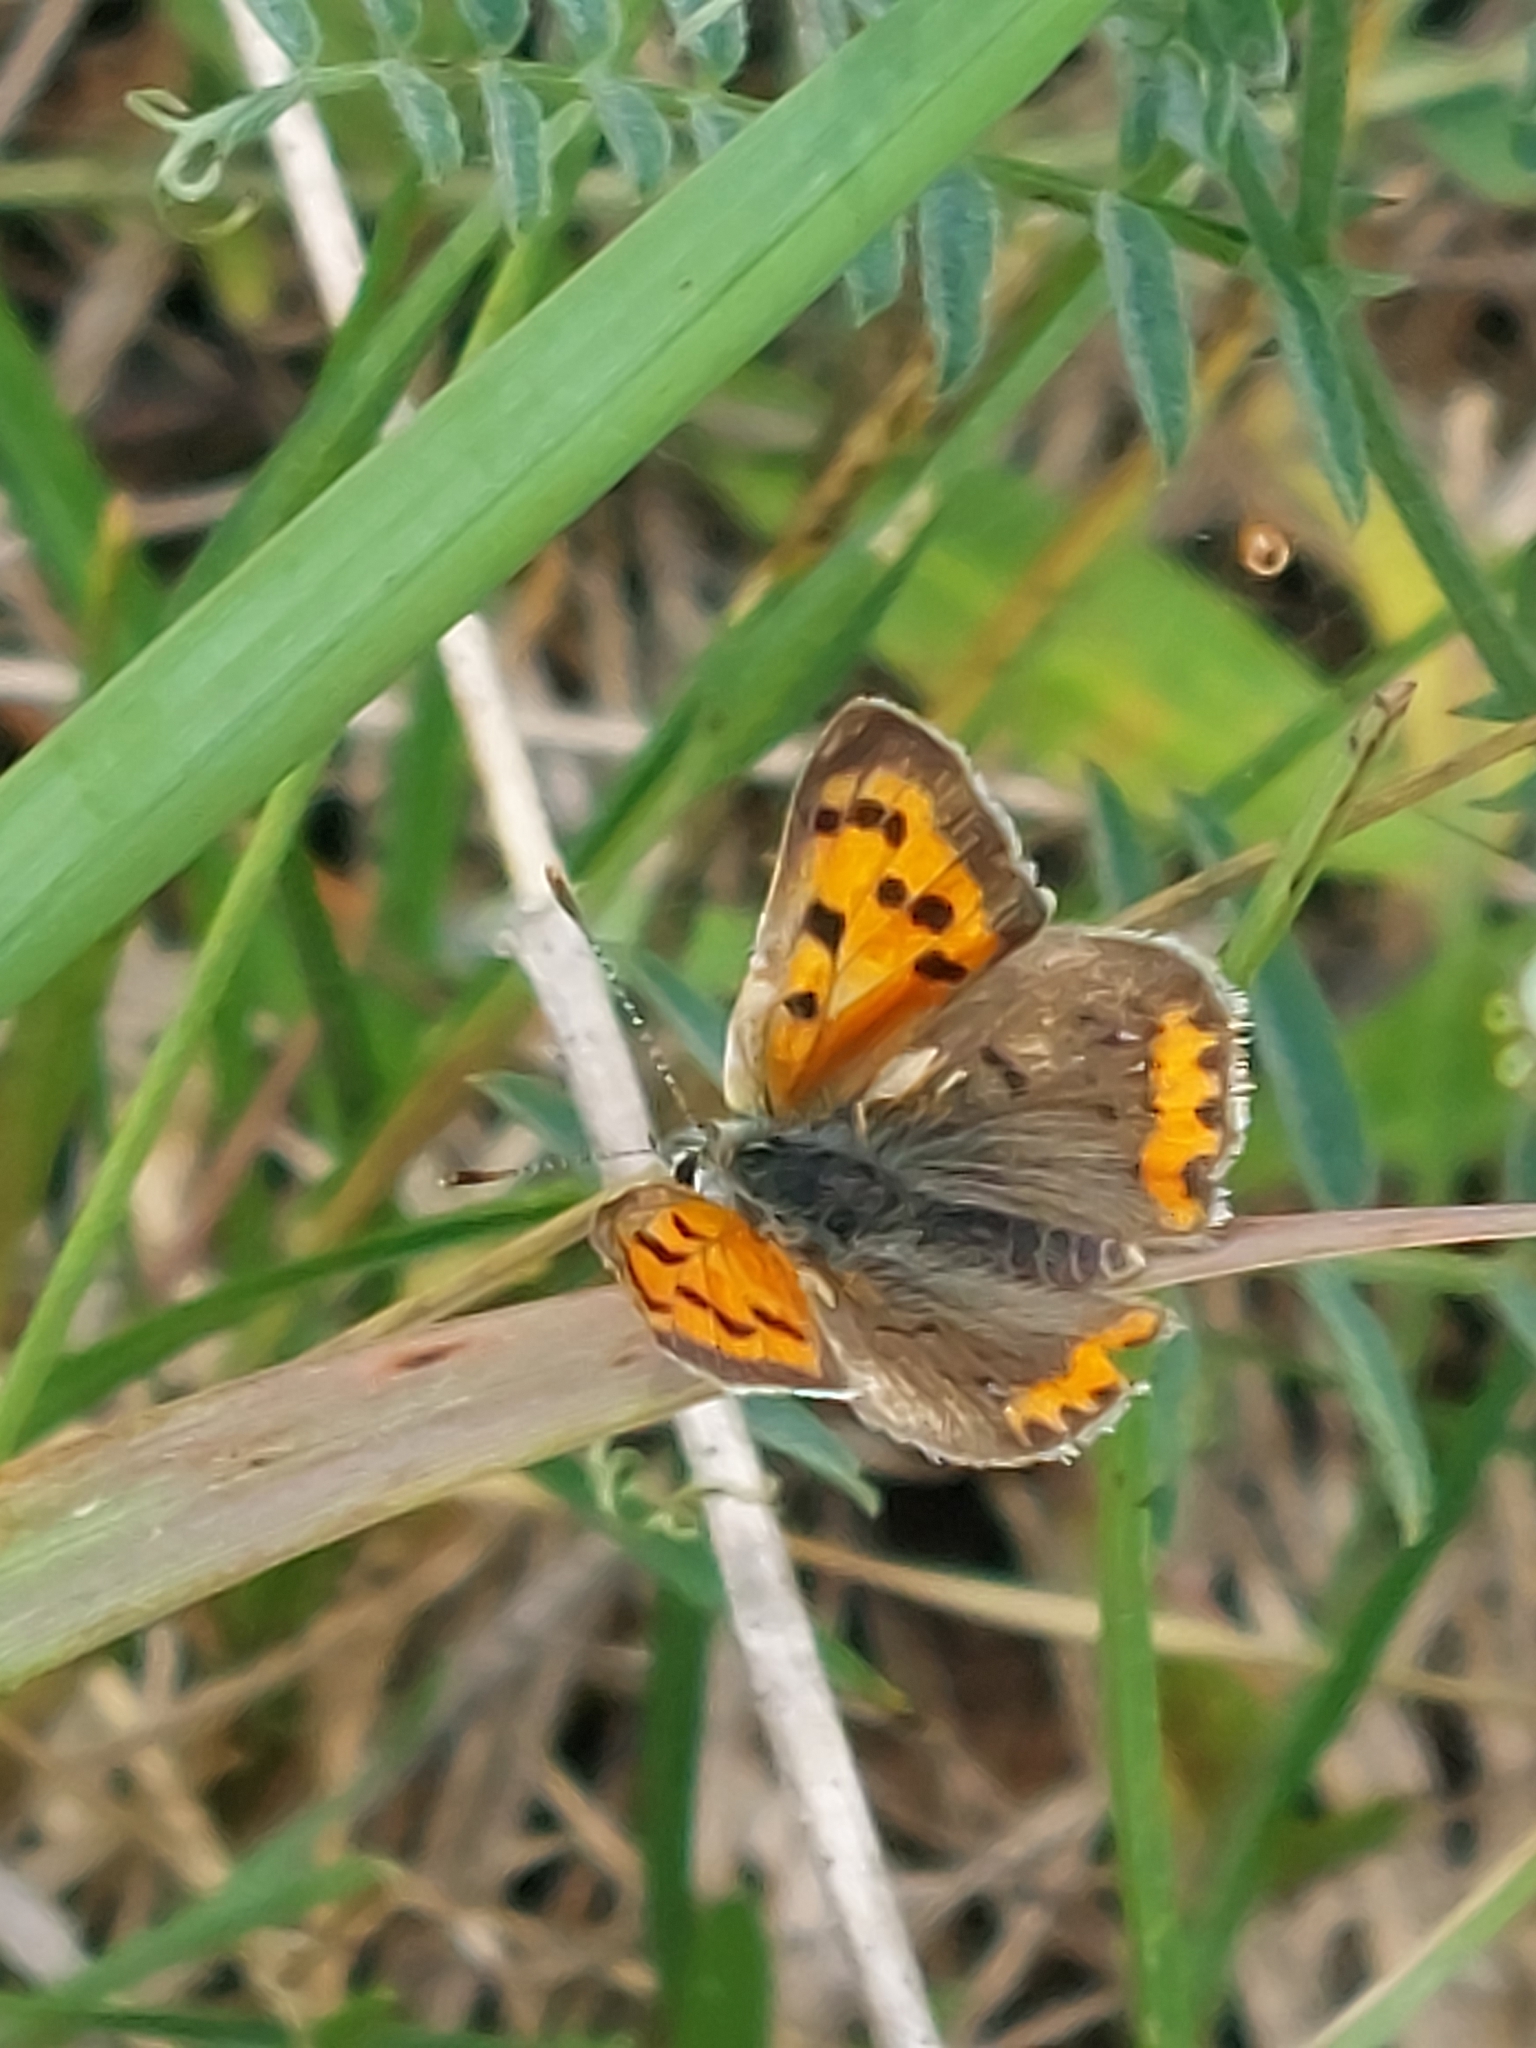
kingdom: Animalia
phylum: Arthropoda
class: Insecta
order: Lepidoptera
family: Lycaenidae
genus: Lycaena
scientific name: Lycaena hypophlaeas
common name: American copper
